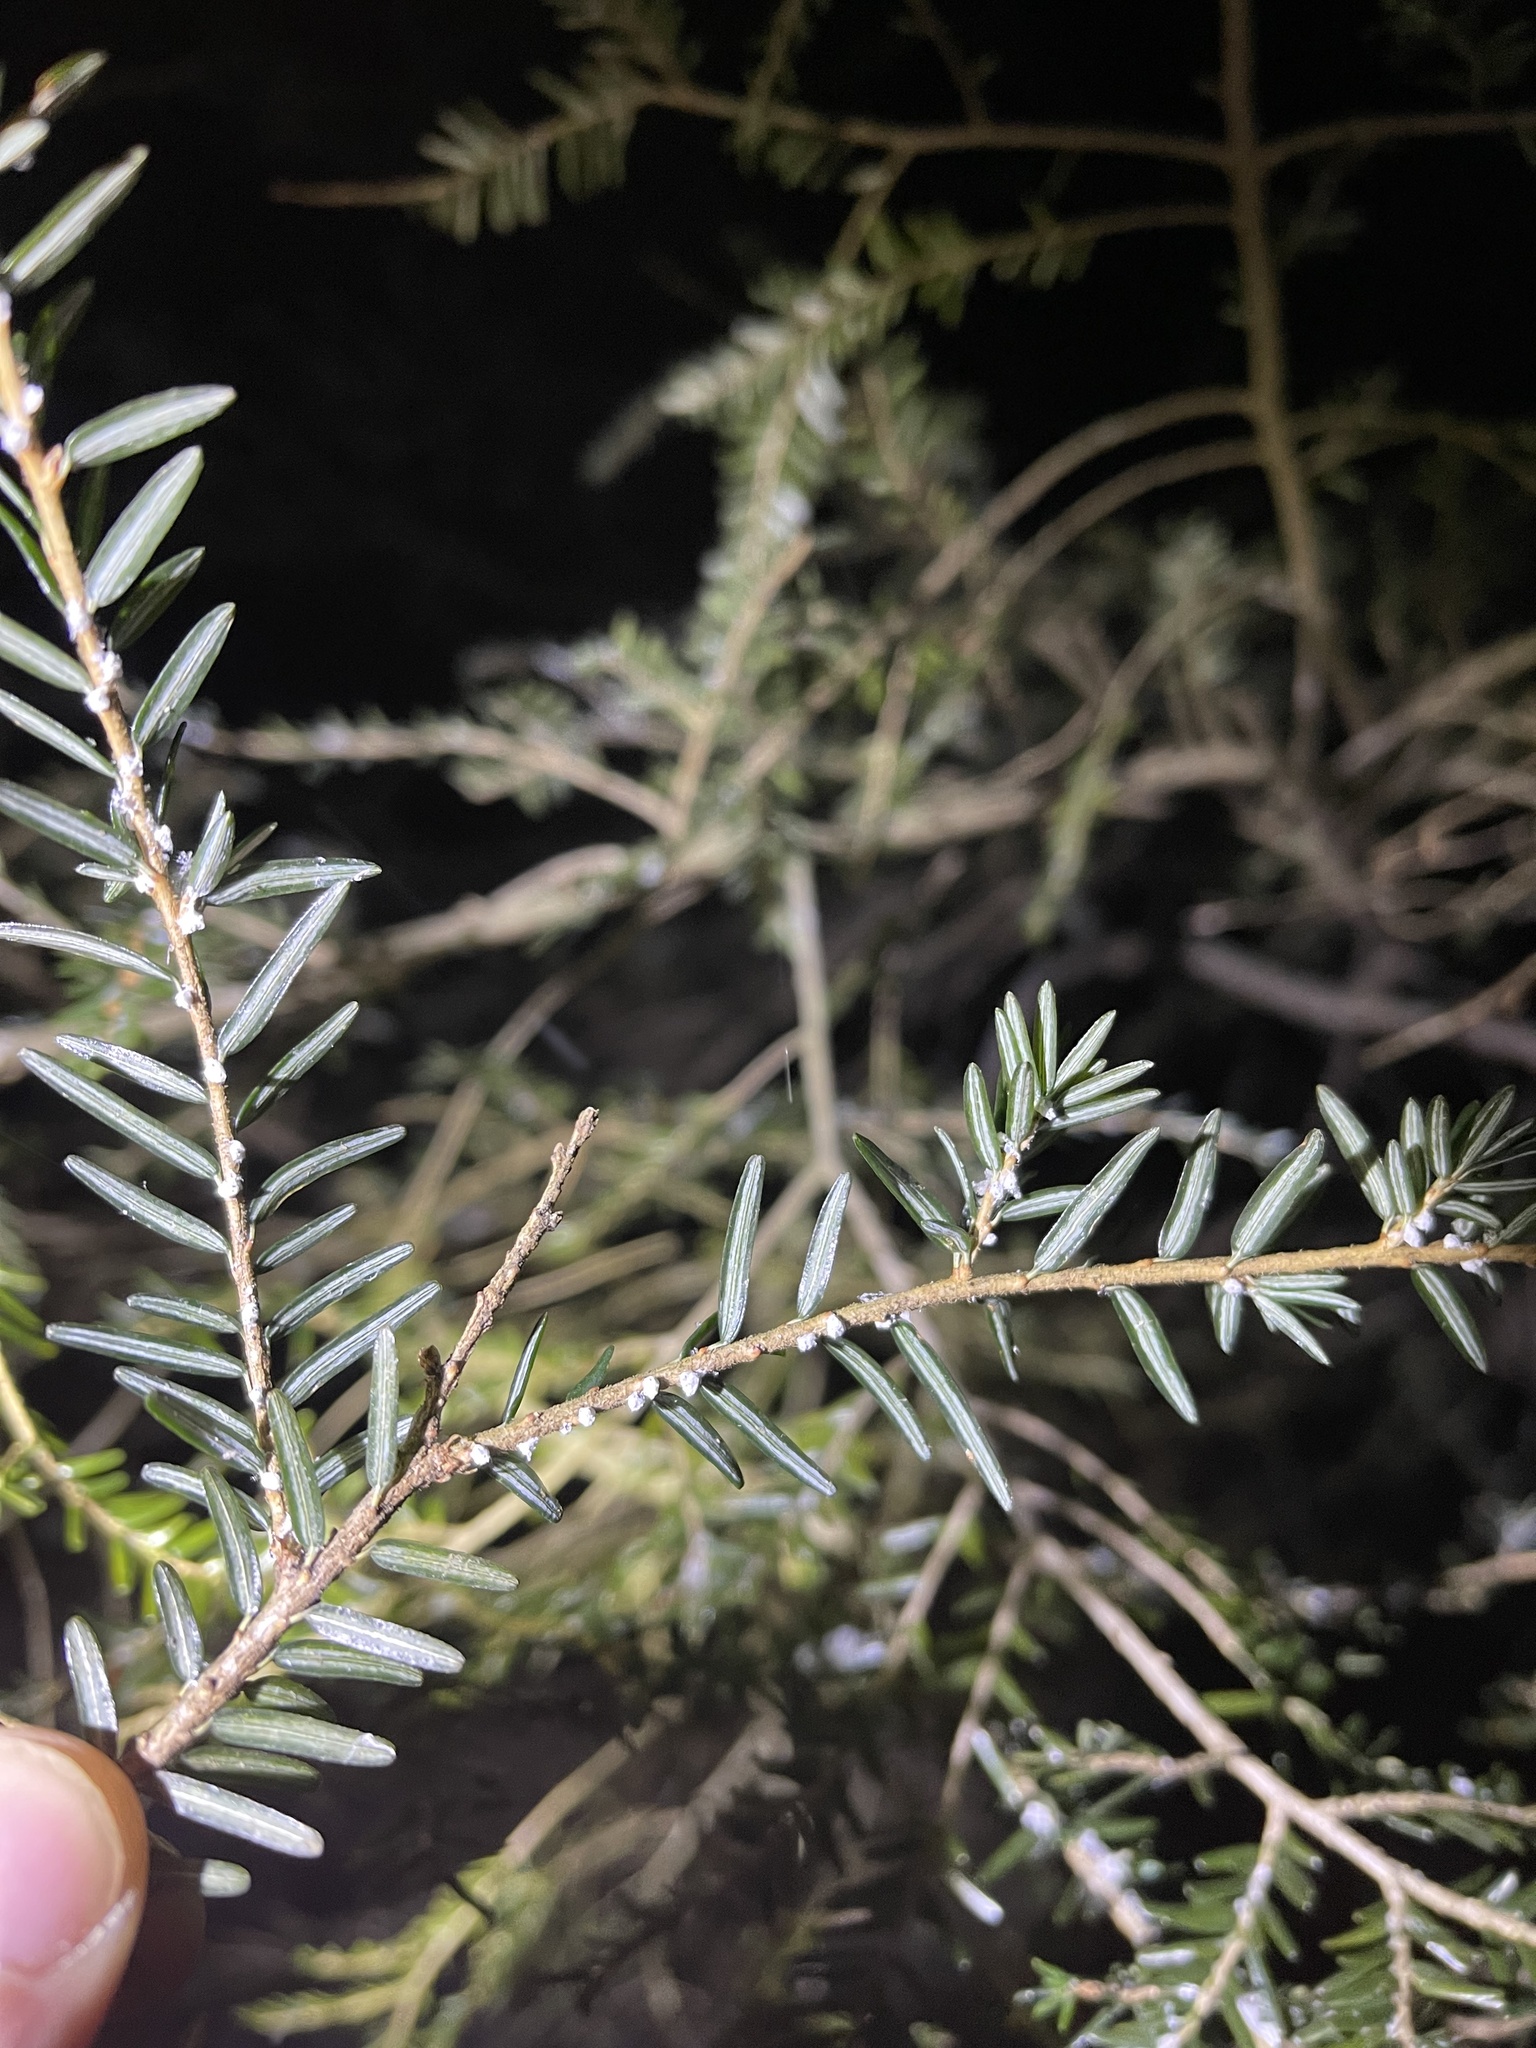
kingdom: Animalia
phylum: Arthropoda
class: Insecta
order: Hemiptera
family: Adelgidae
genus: Adelges
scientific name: Adelges tsugae
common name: Hemlock woolly adelgid
